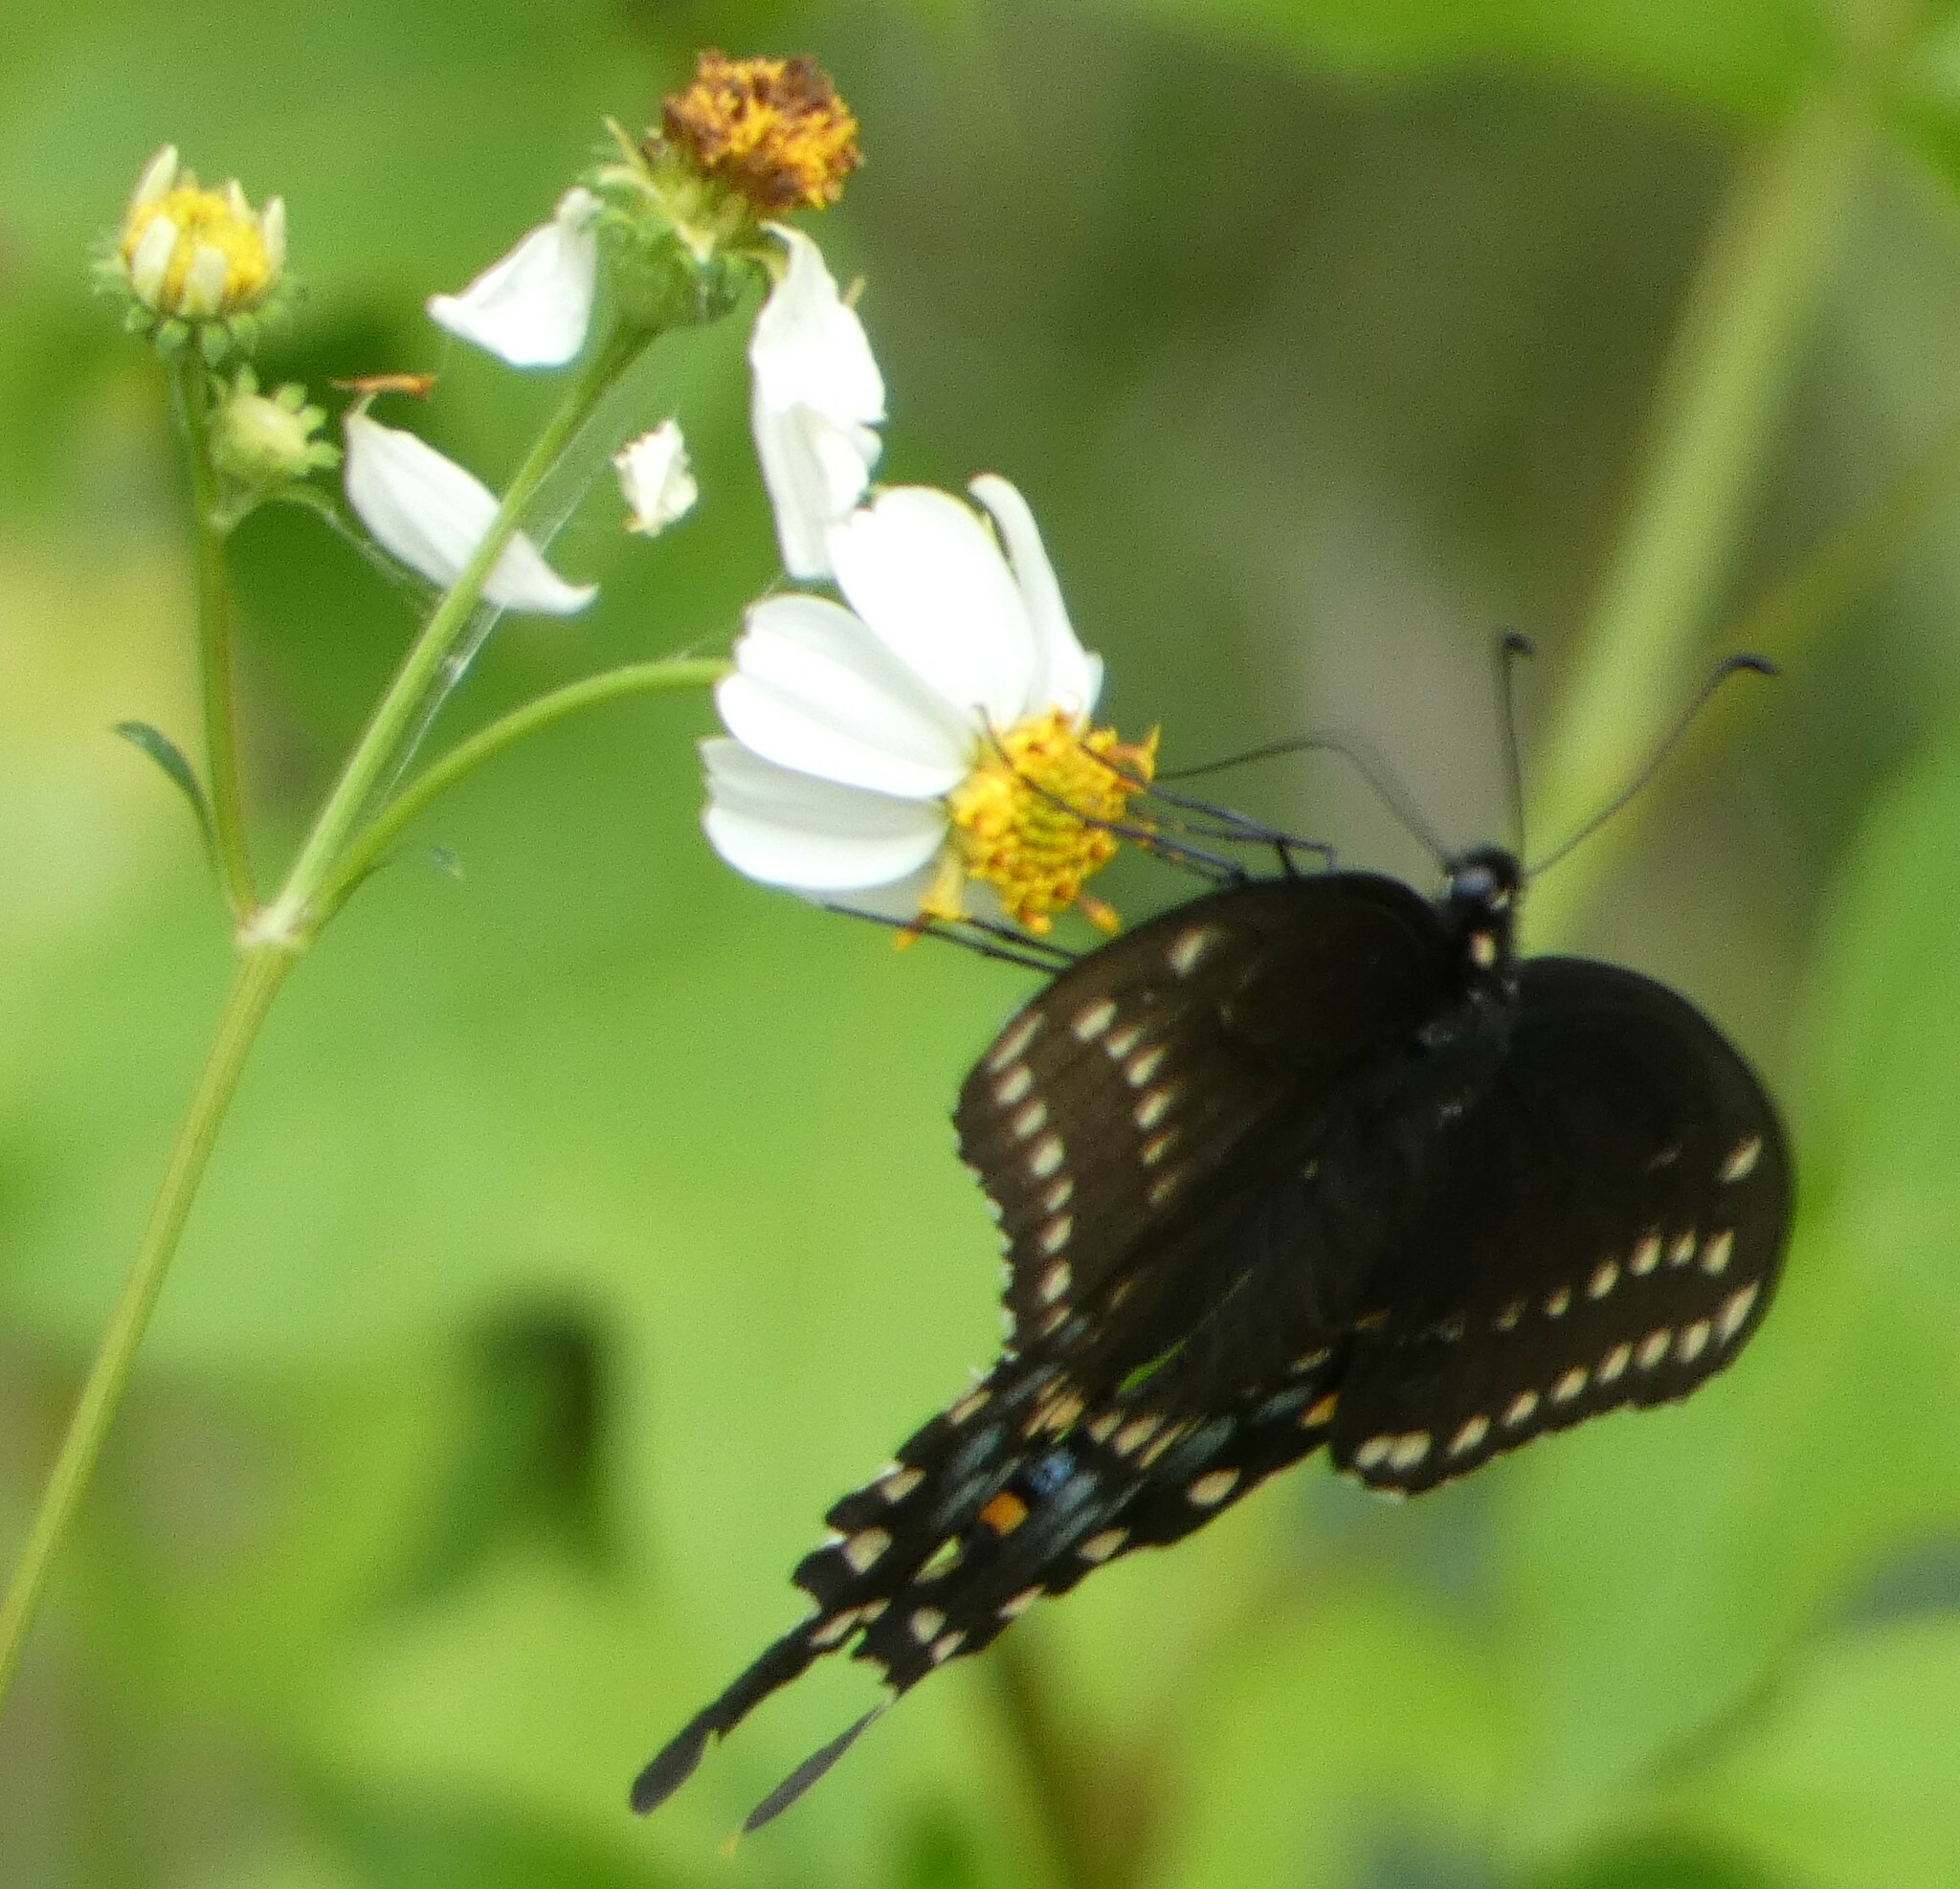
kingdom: Animalia
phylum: Arthropoda
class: Insecta
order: Lepidoptera
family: Papilionidae
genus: Papilio
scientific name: Papilio polyxenes
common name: Black swallowtail
